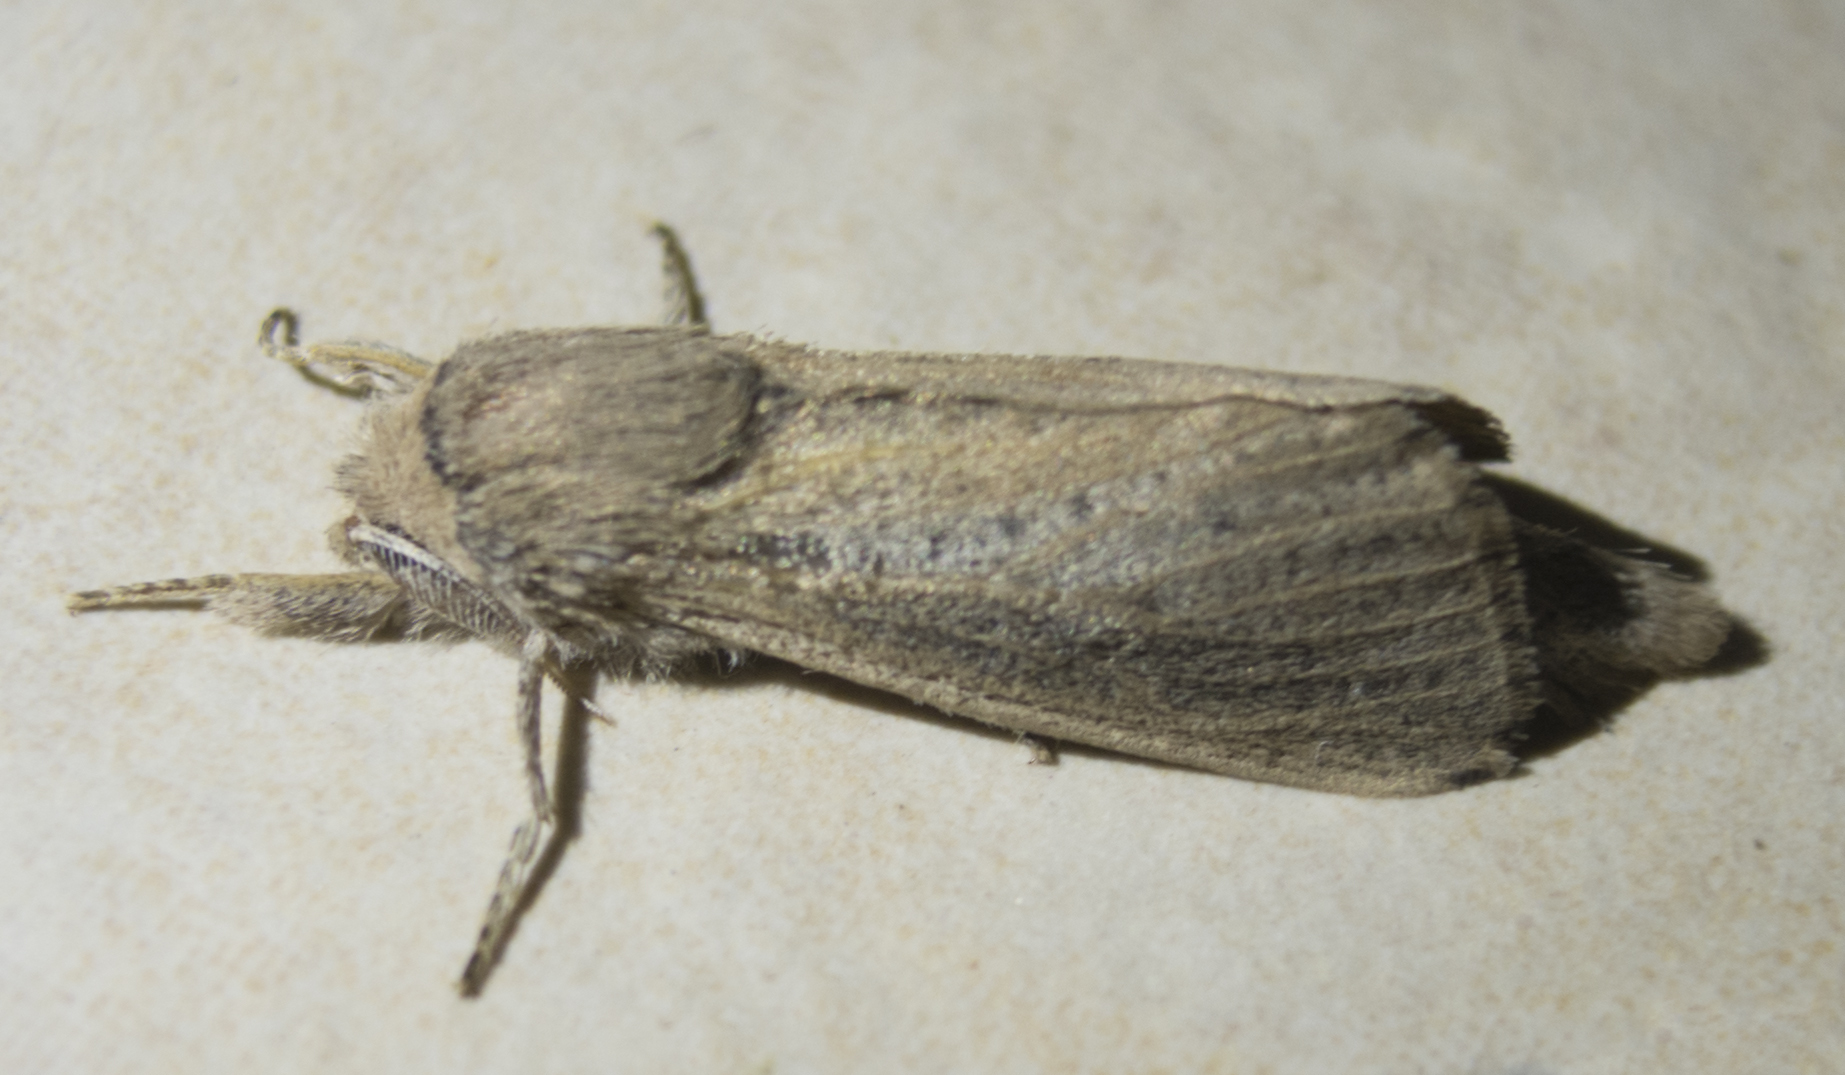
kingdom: Animalia
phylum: Arthropoda
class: Insecta
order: Lepidoptera
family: Cossidae
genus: Phragmataecia
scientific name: Phragmataecia castaneae
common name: Reed leopard
